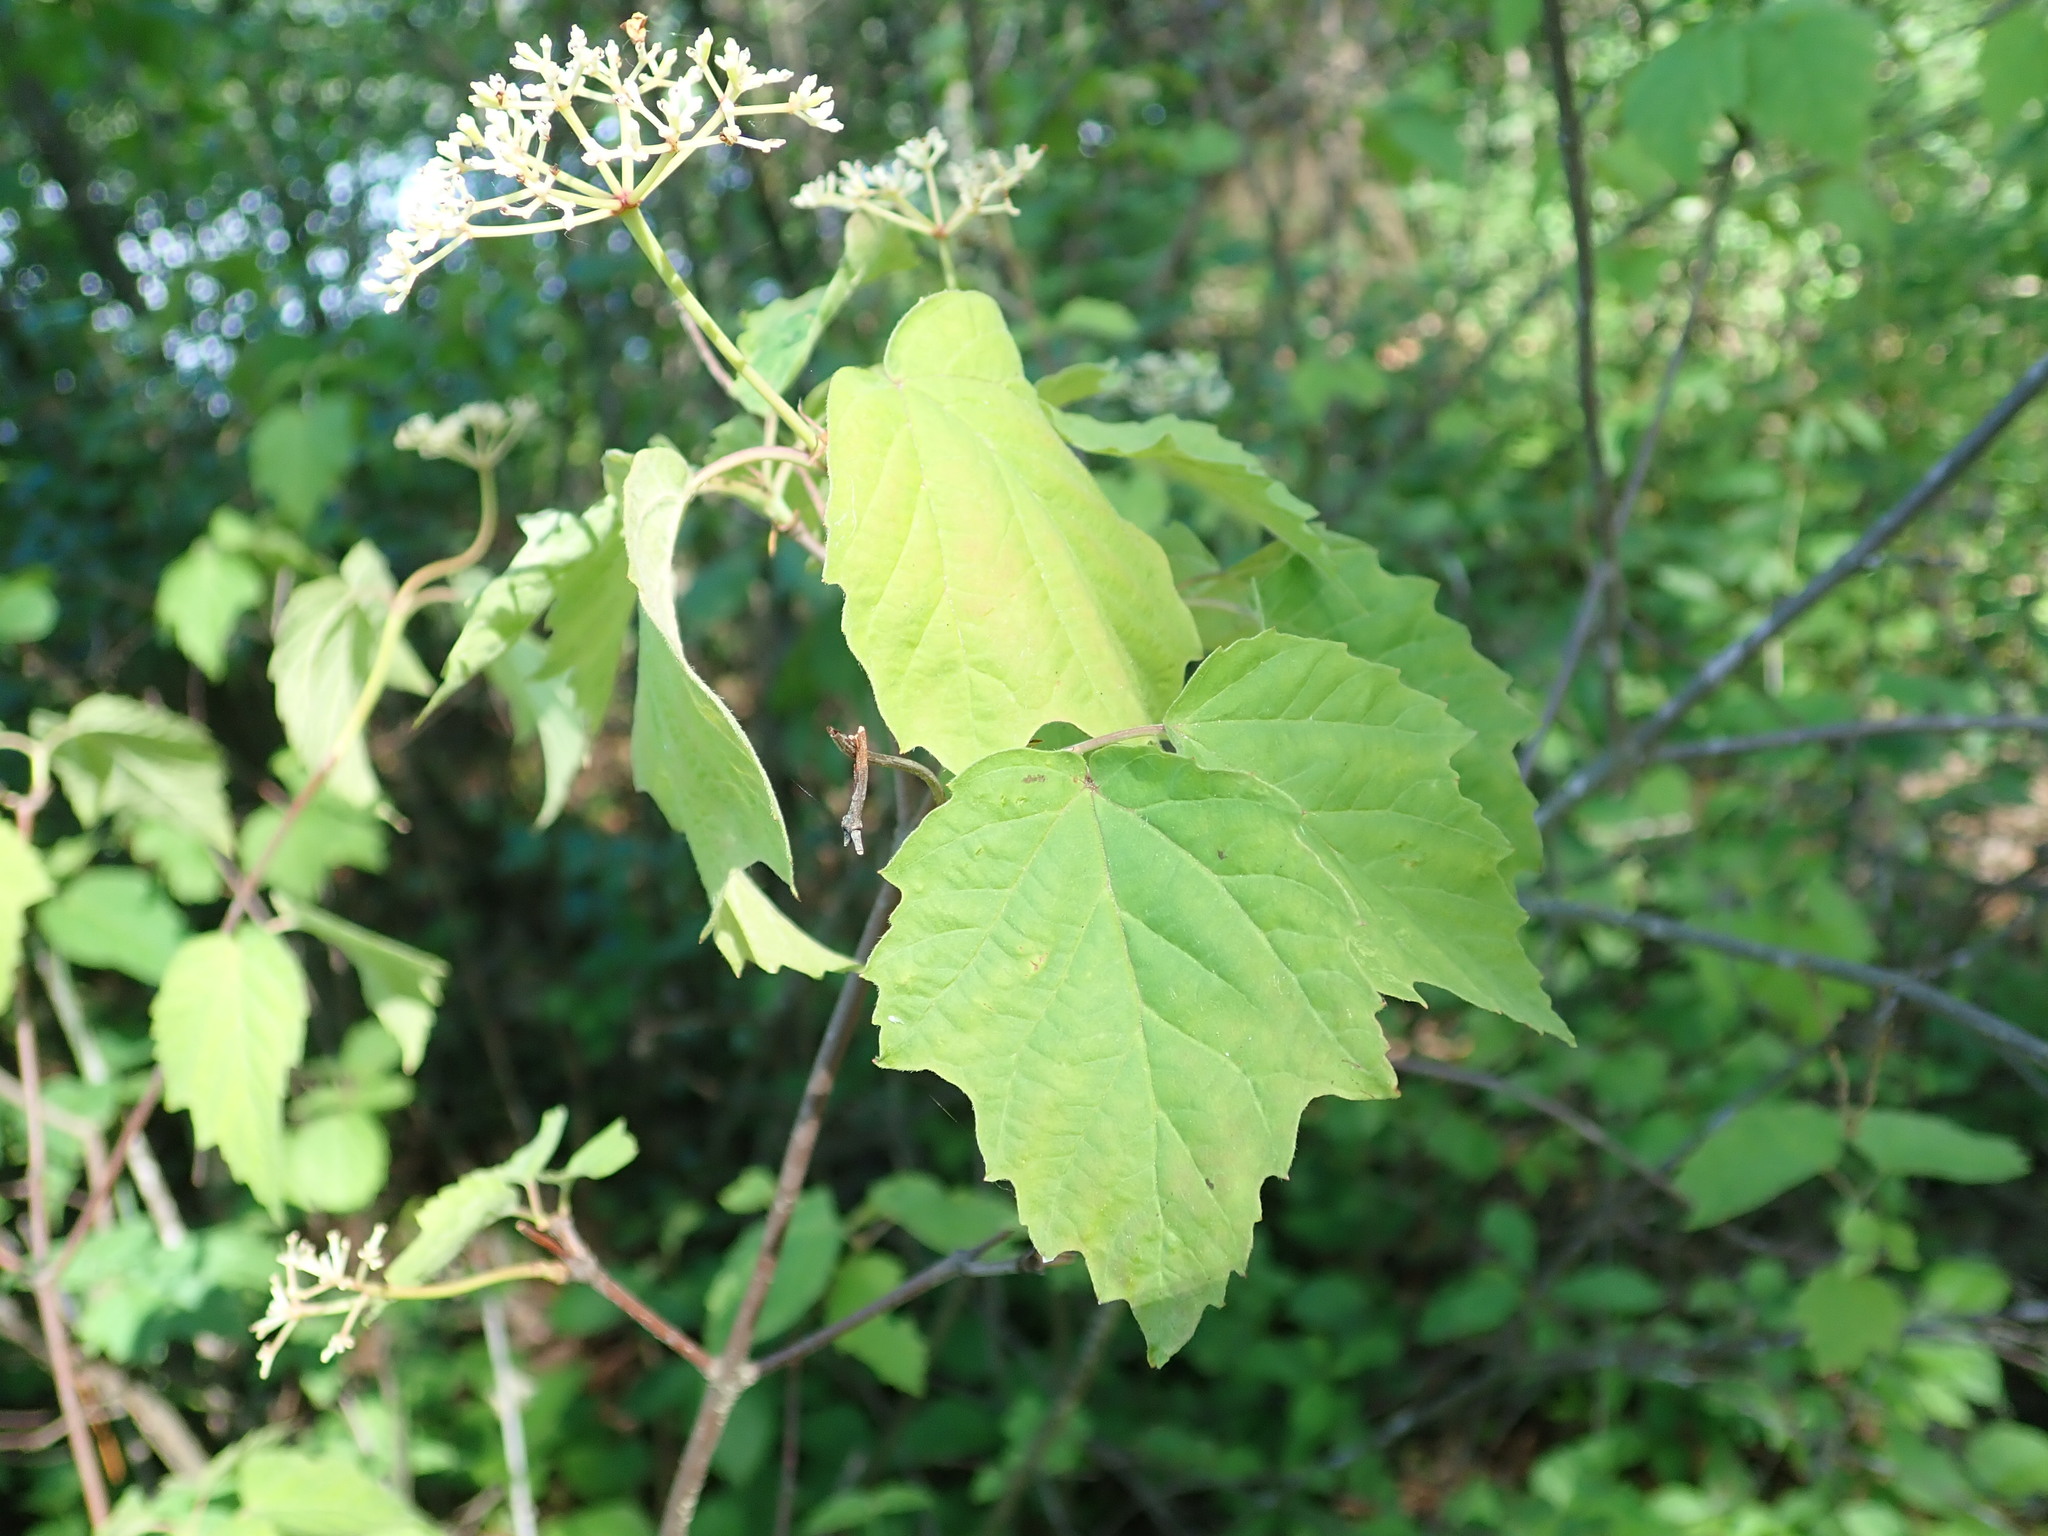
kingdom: Plantae
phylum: Tracheophyta
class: Magnoliopsida
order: Dipsacales
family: Viburnaceae
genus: Viburnum
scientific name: Viburnum acerifolium
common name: Dockmackie
